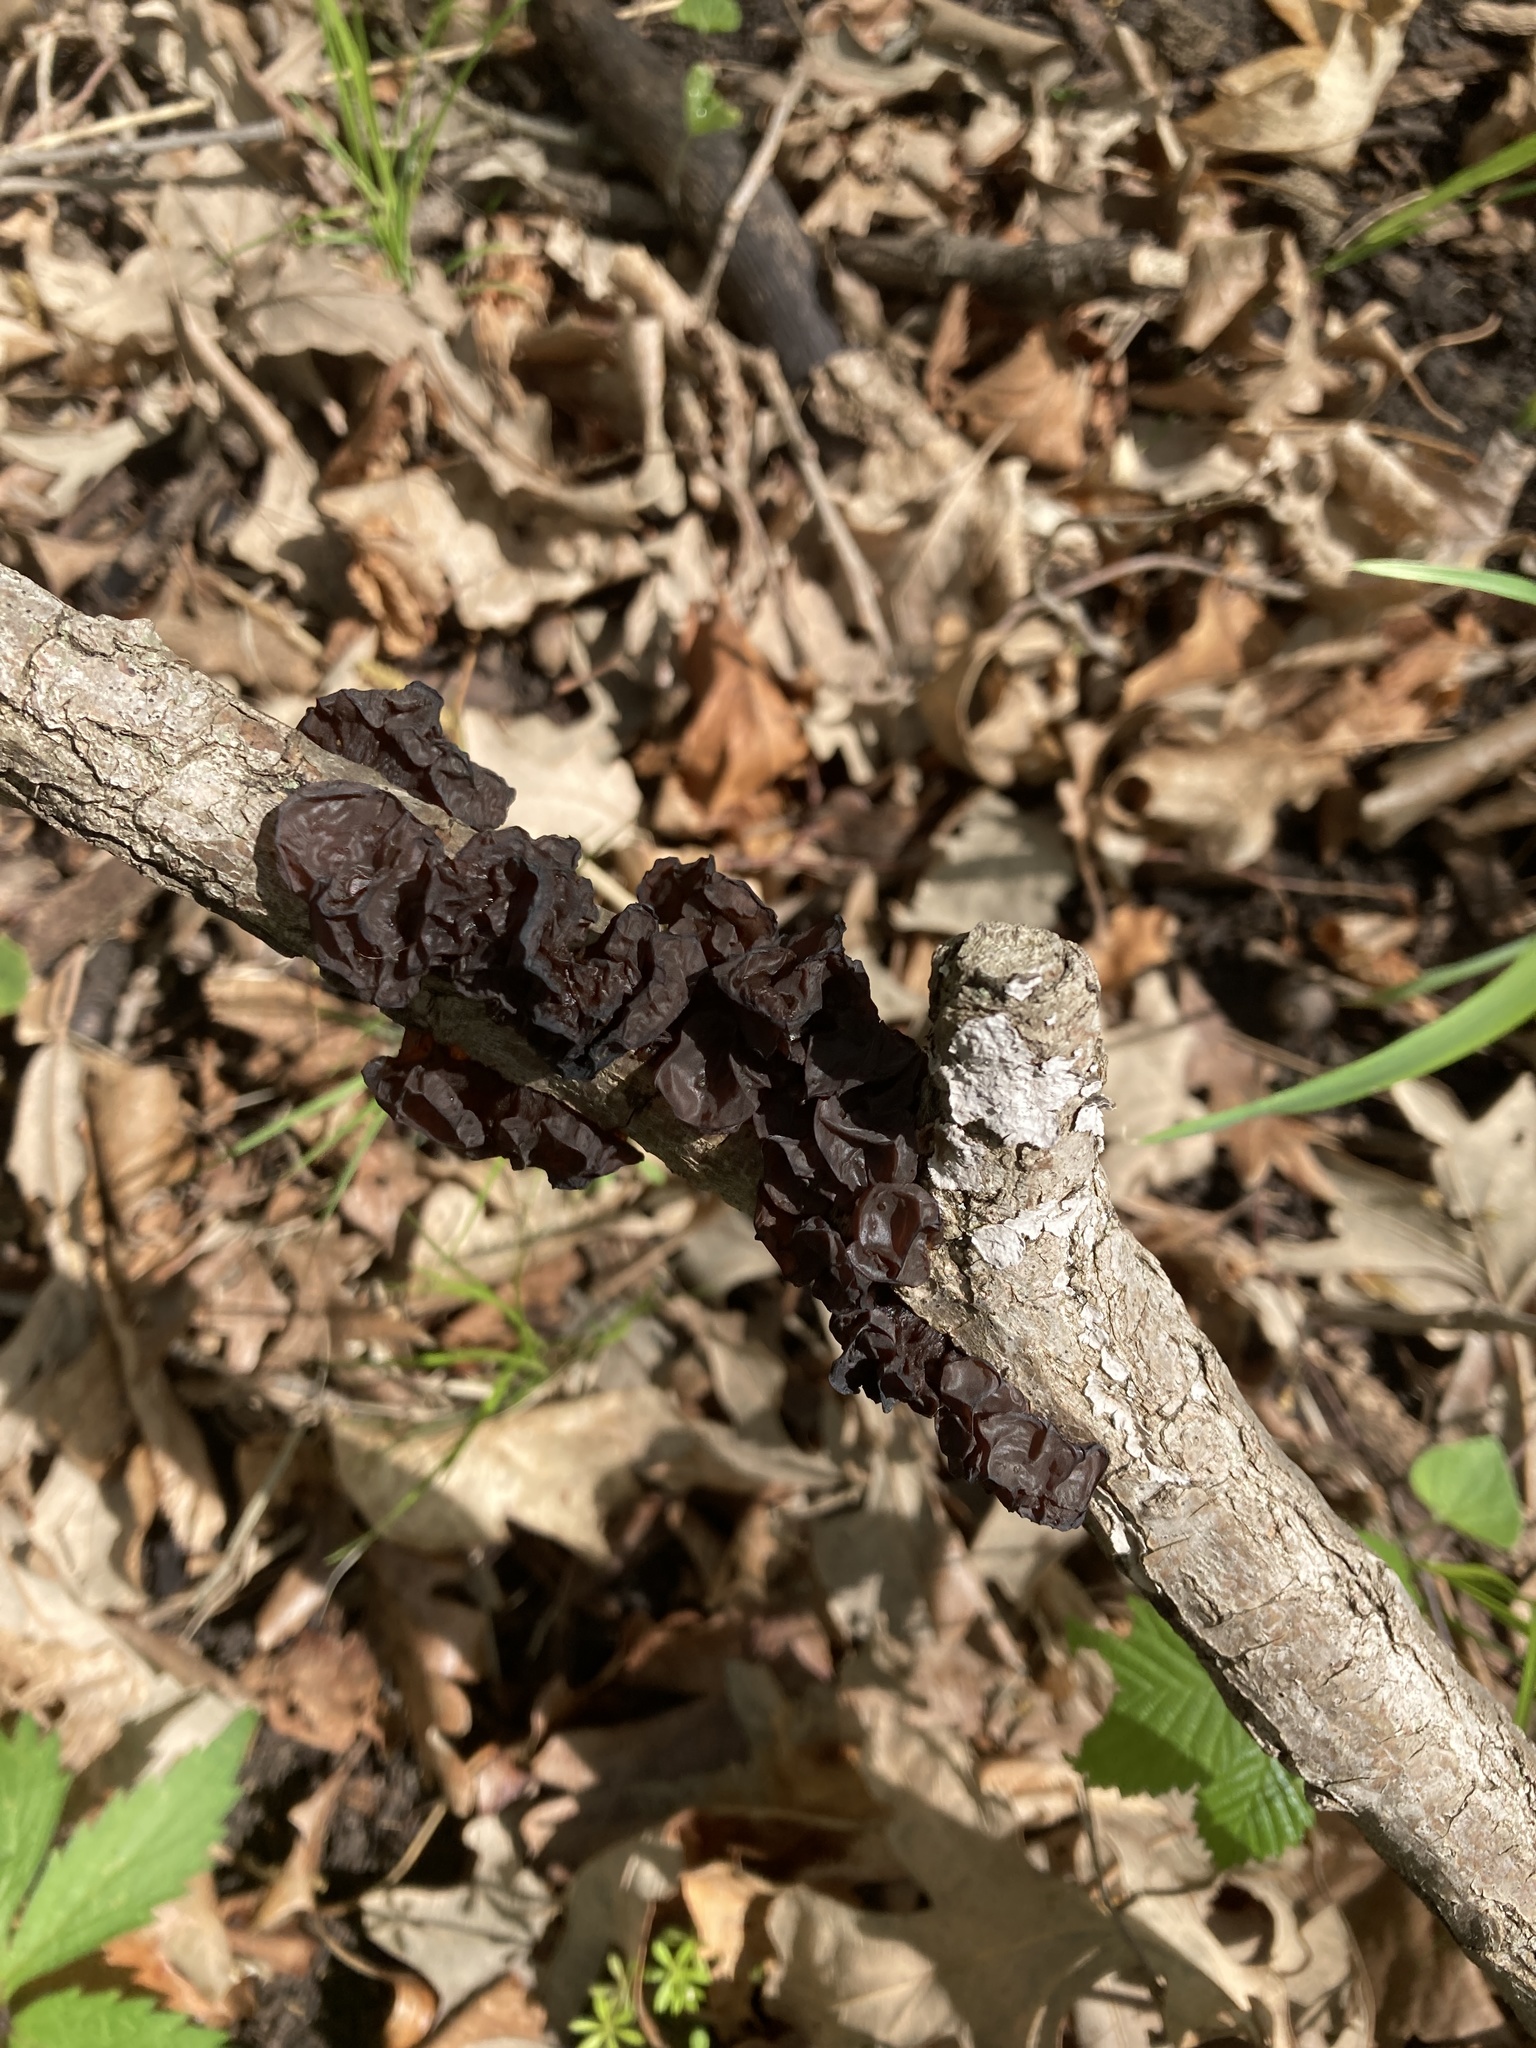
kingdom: Fungi
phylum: Basidiomycota
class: Agaricomycetes
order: Auriculariales
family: Auriculariaceae
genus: Exidia
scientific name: Exidia
